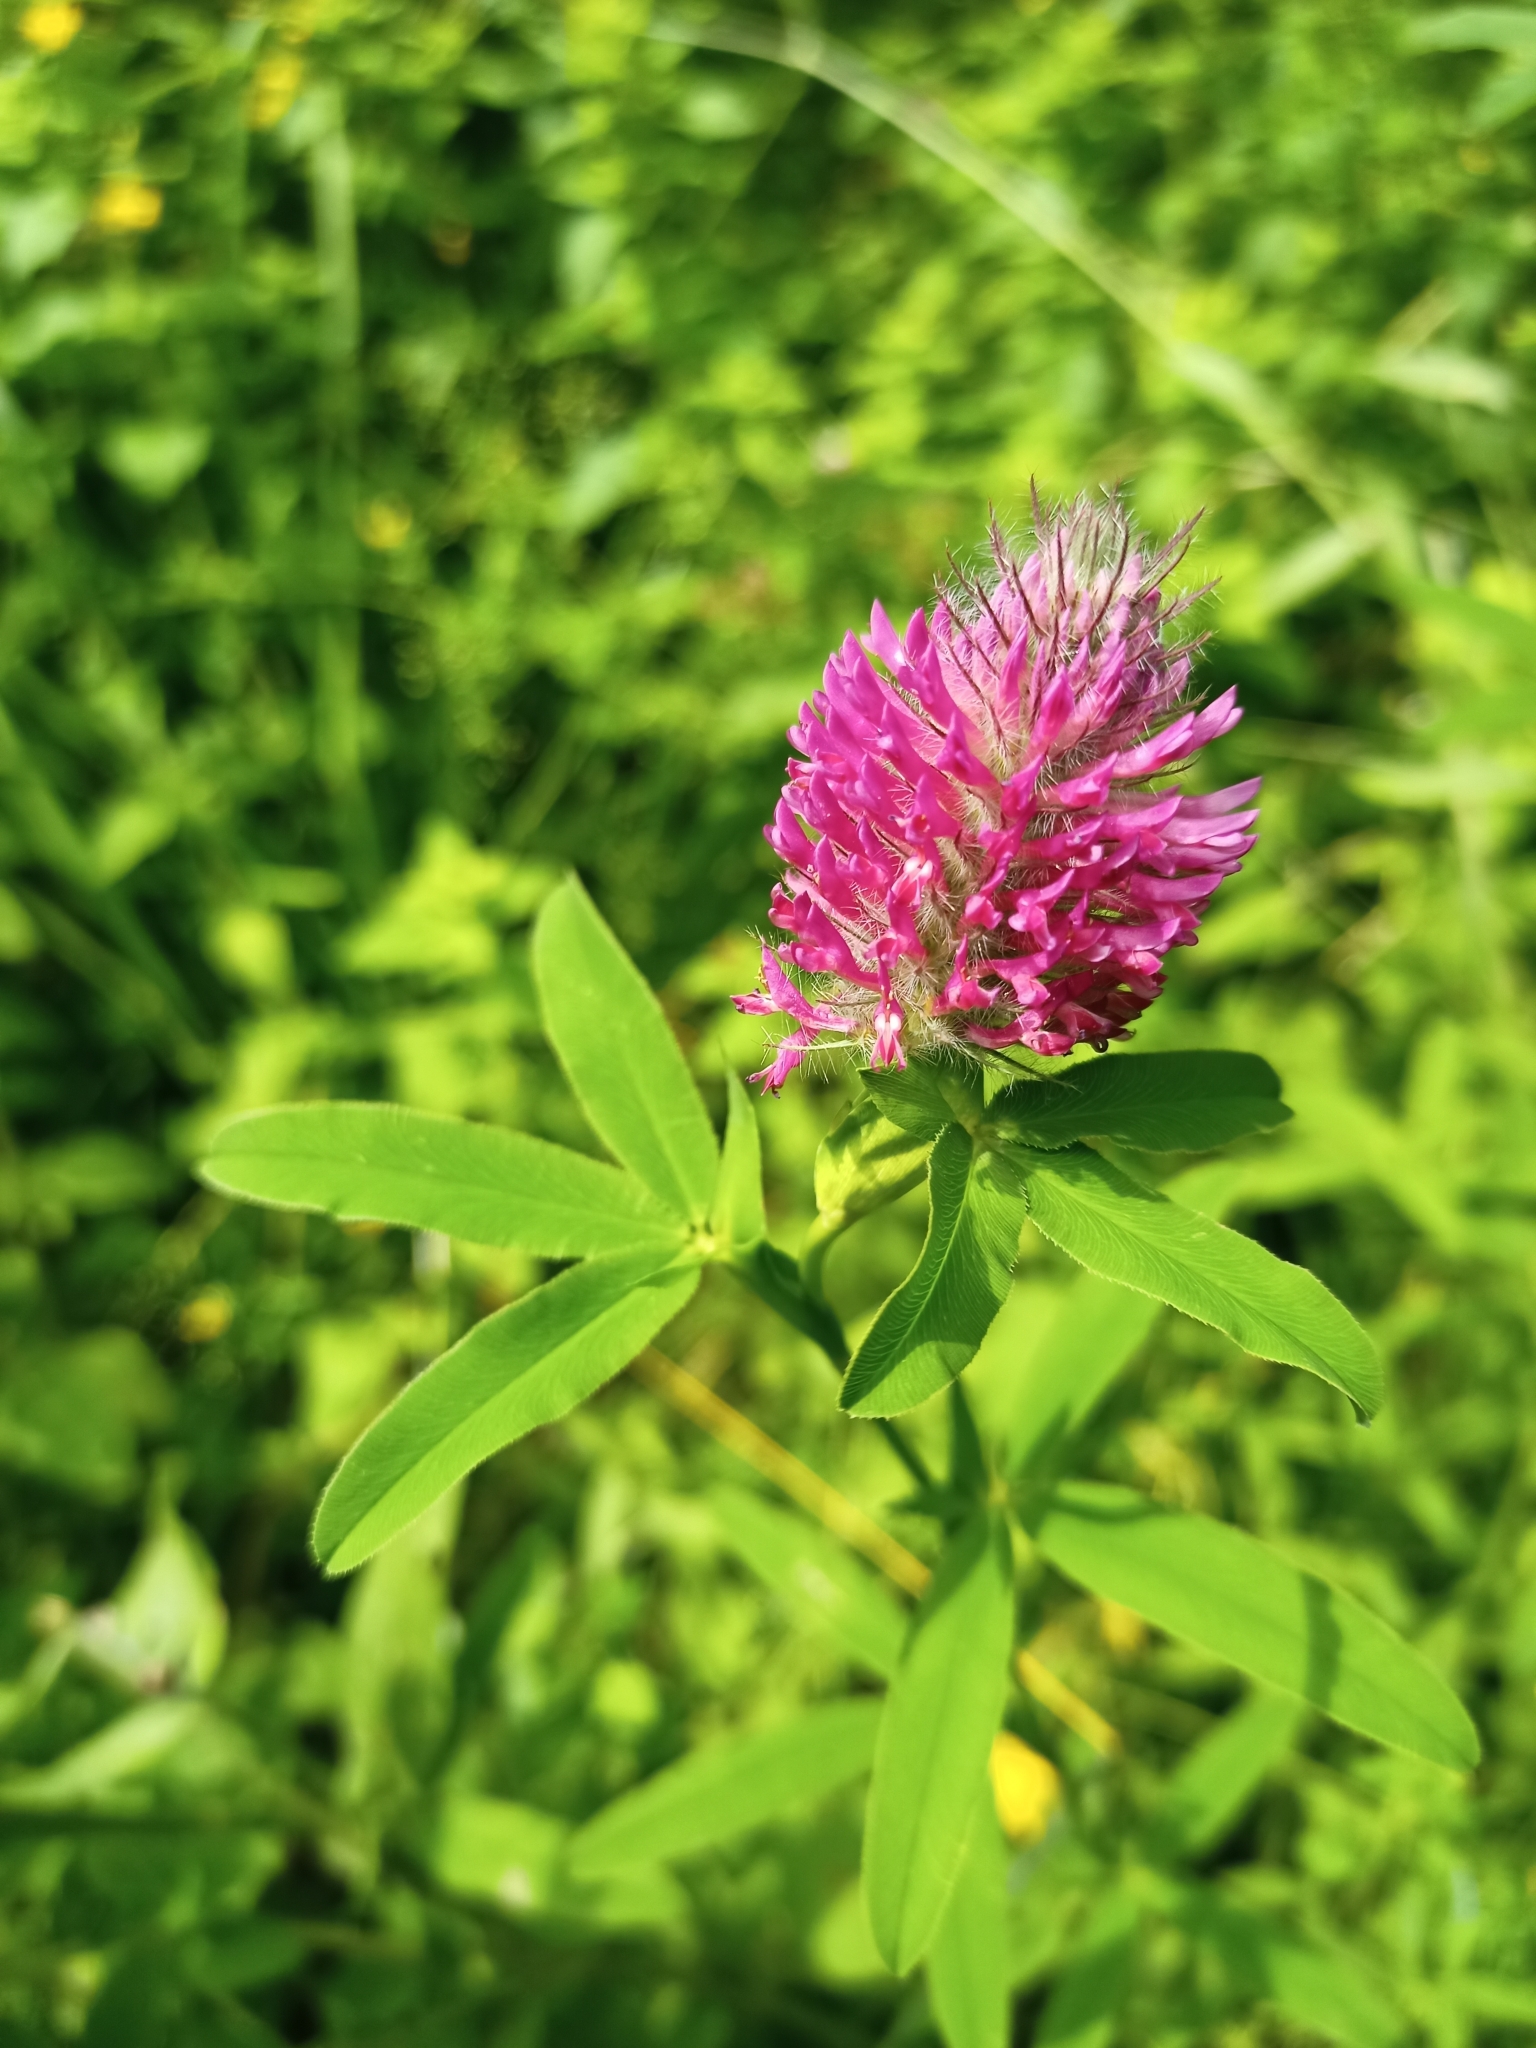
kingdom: Plantae
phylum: Tracheophyta
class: Magnoliopsida
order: Fabales
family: Fabaceae
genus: Trifolium
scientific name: Trifolium medium
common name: Zigzag clover
